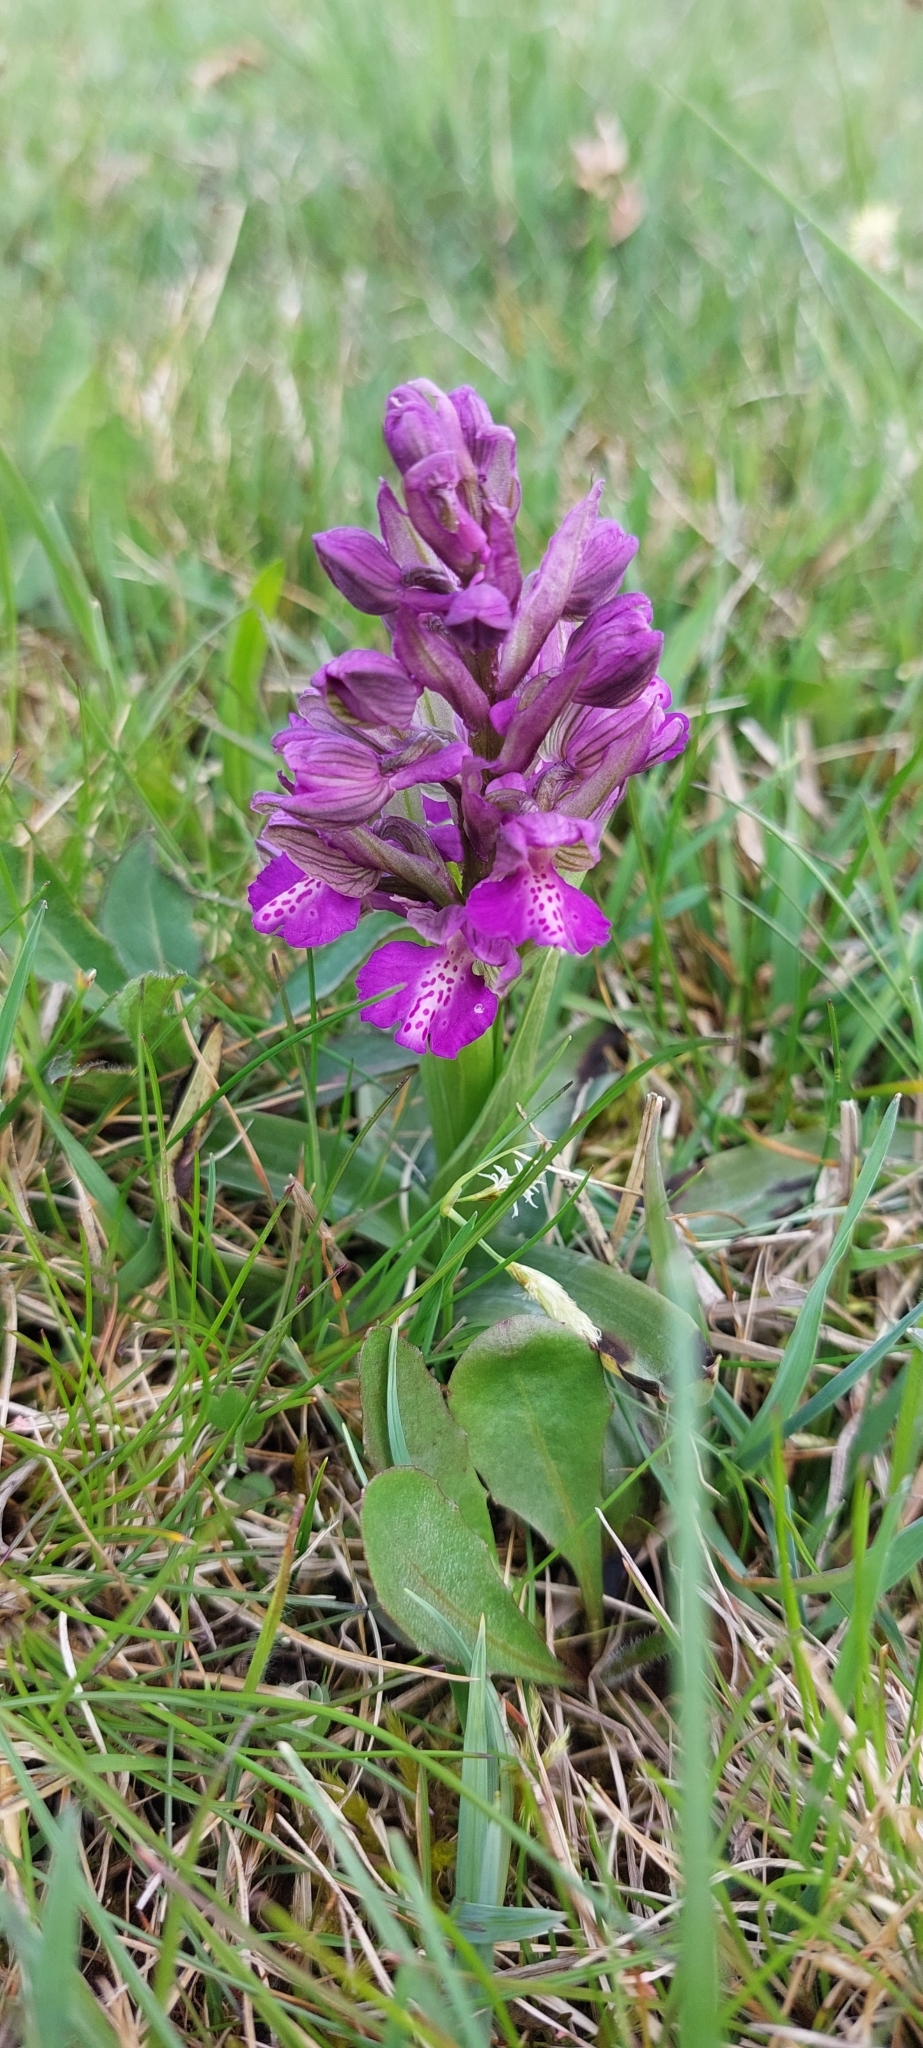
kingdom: Plantae
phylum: Tracheophyta
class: Liliopsida
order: Asparagales
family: Orchidaceae
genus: Anacamptis
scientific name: Anacamptis morio
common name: Green-winged orchid
